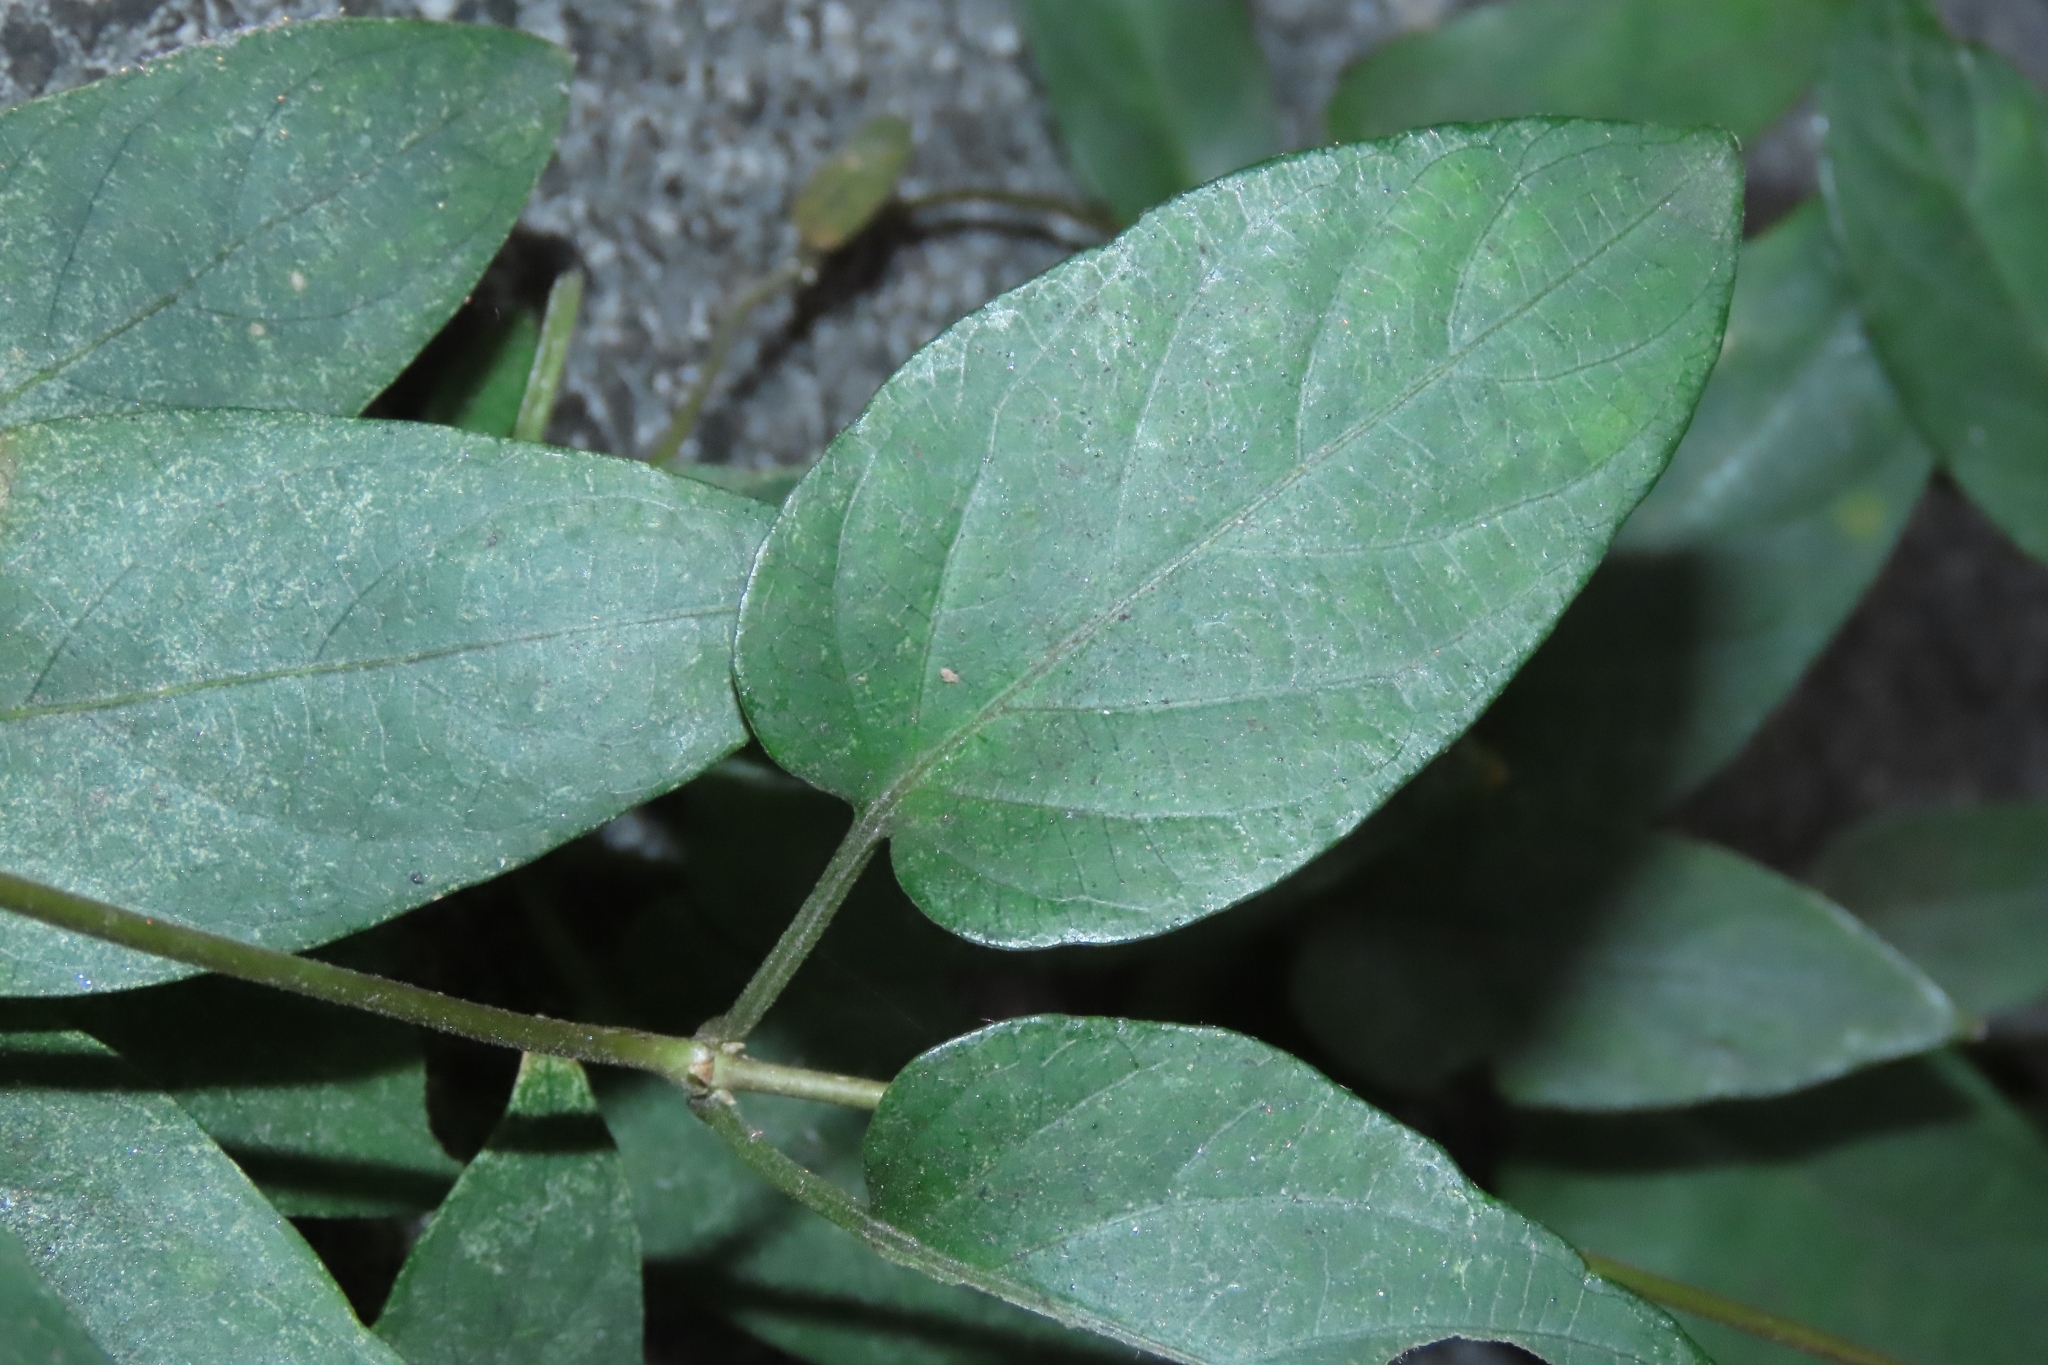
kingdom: Plantae
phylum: Tracheophyta
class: Magnoliopsida
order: Gentianales
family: Rubiaceae
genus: Paederia
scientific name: Paederia foetida
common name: Stinkvine
